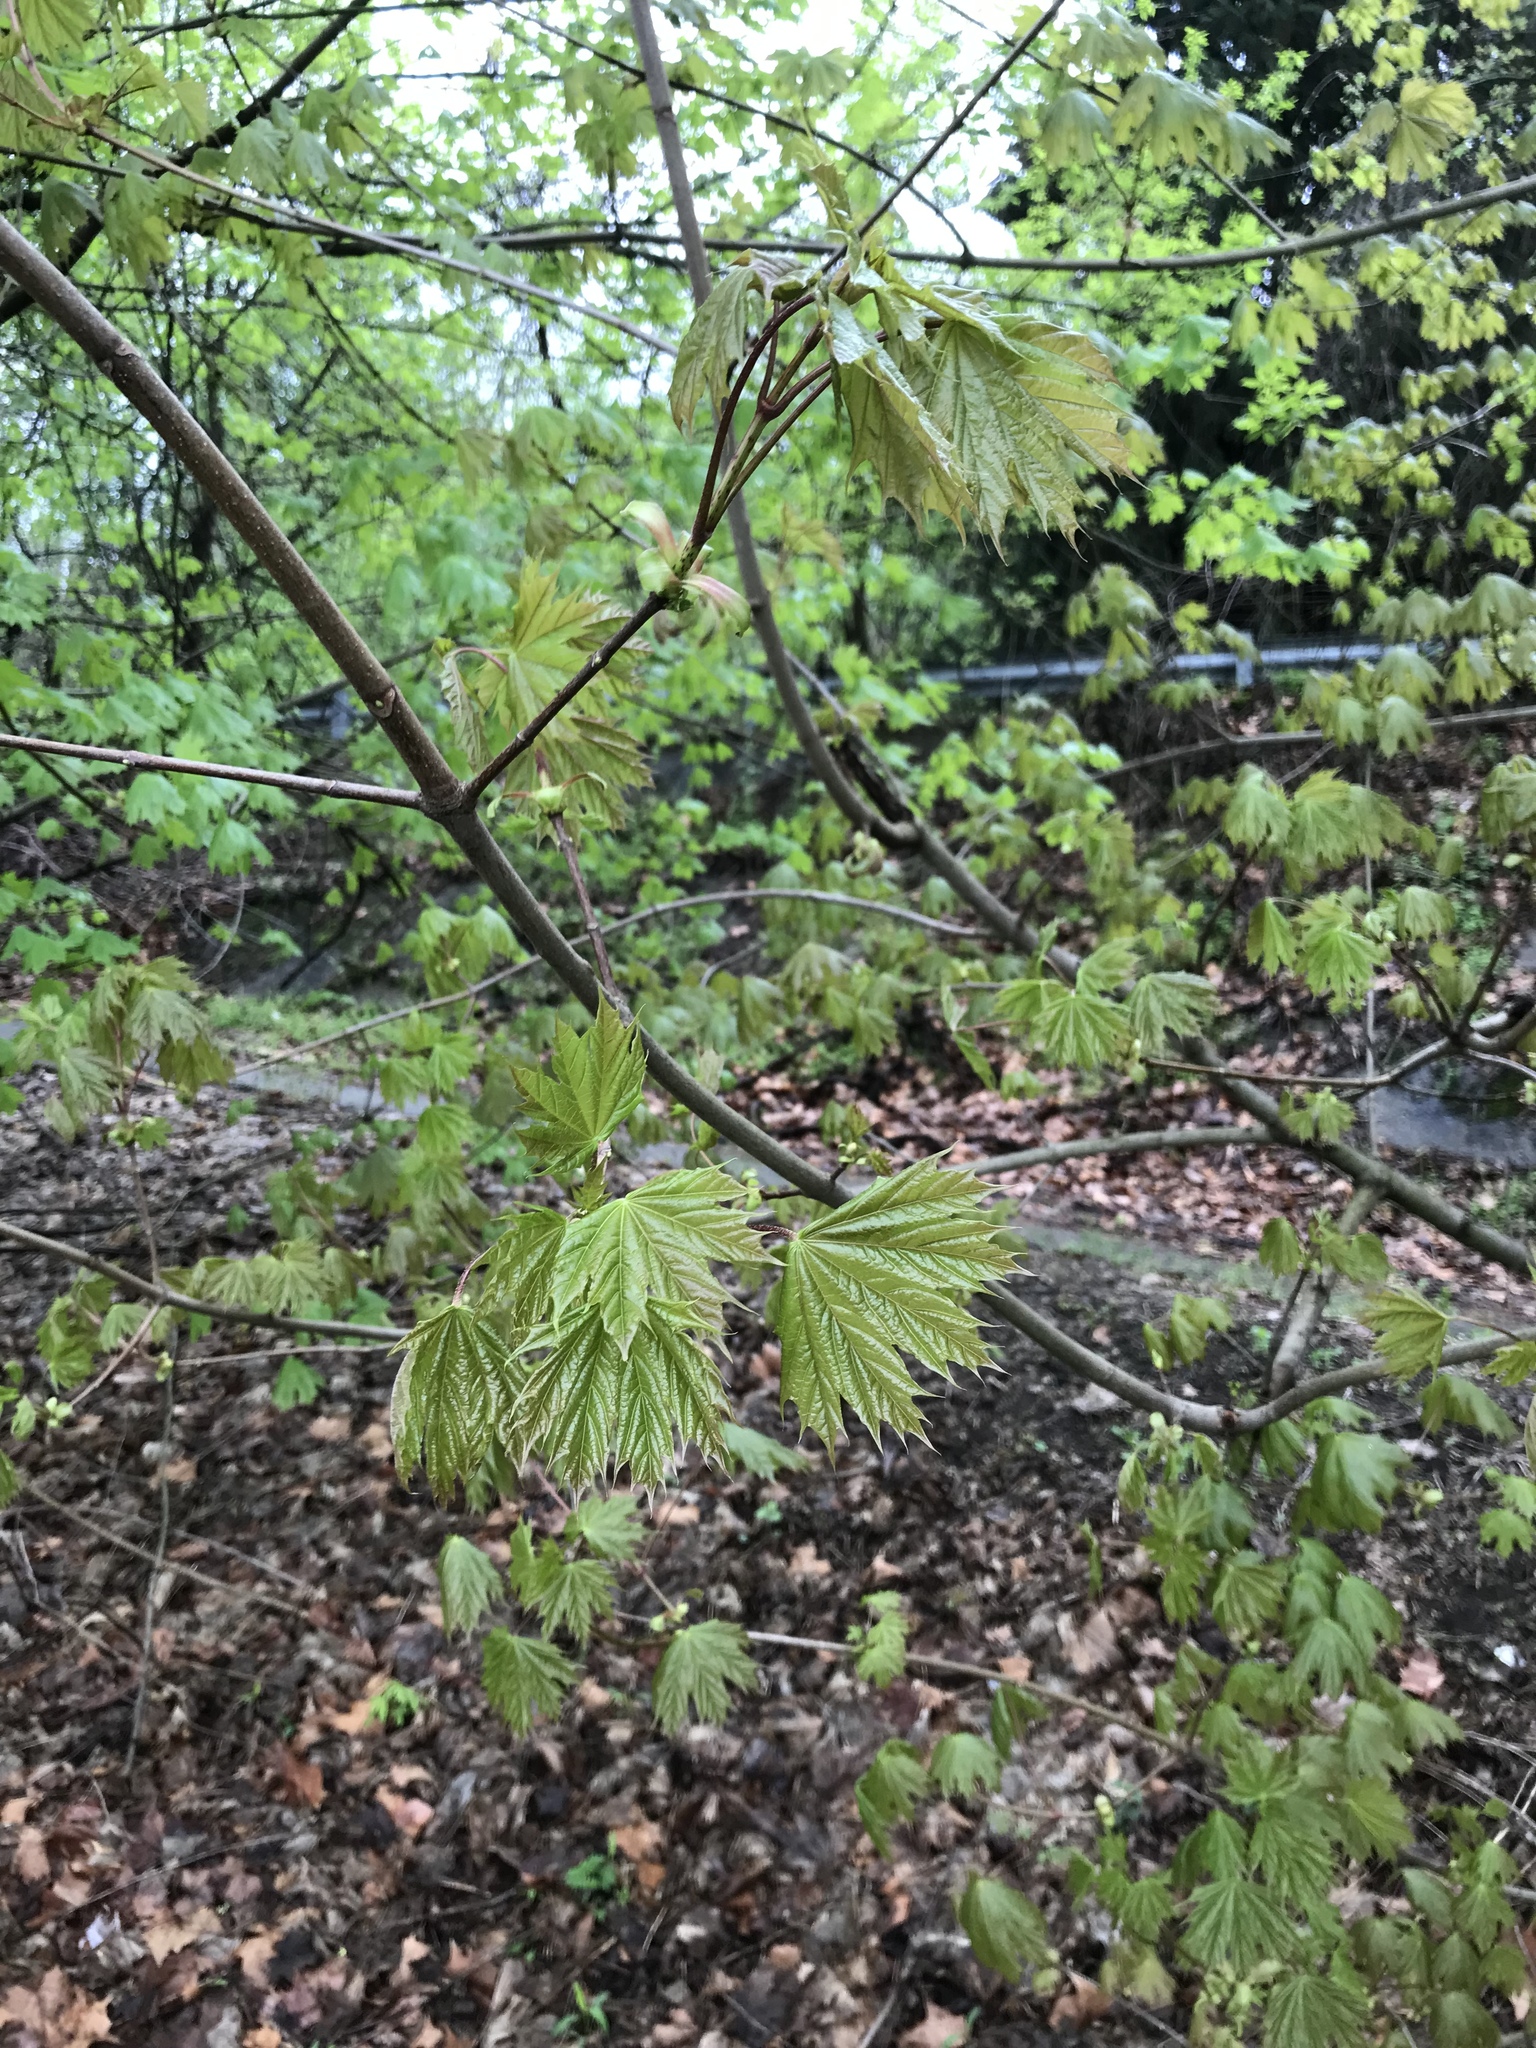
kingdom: Plantae
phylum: Tracheophyta
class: Magnoliopsida
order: Sapindales
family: Sapindaceae
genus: Acer
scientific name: Acer platanoides
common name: Norway maple
